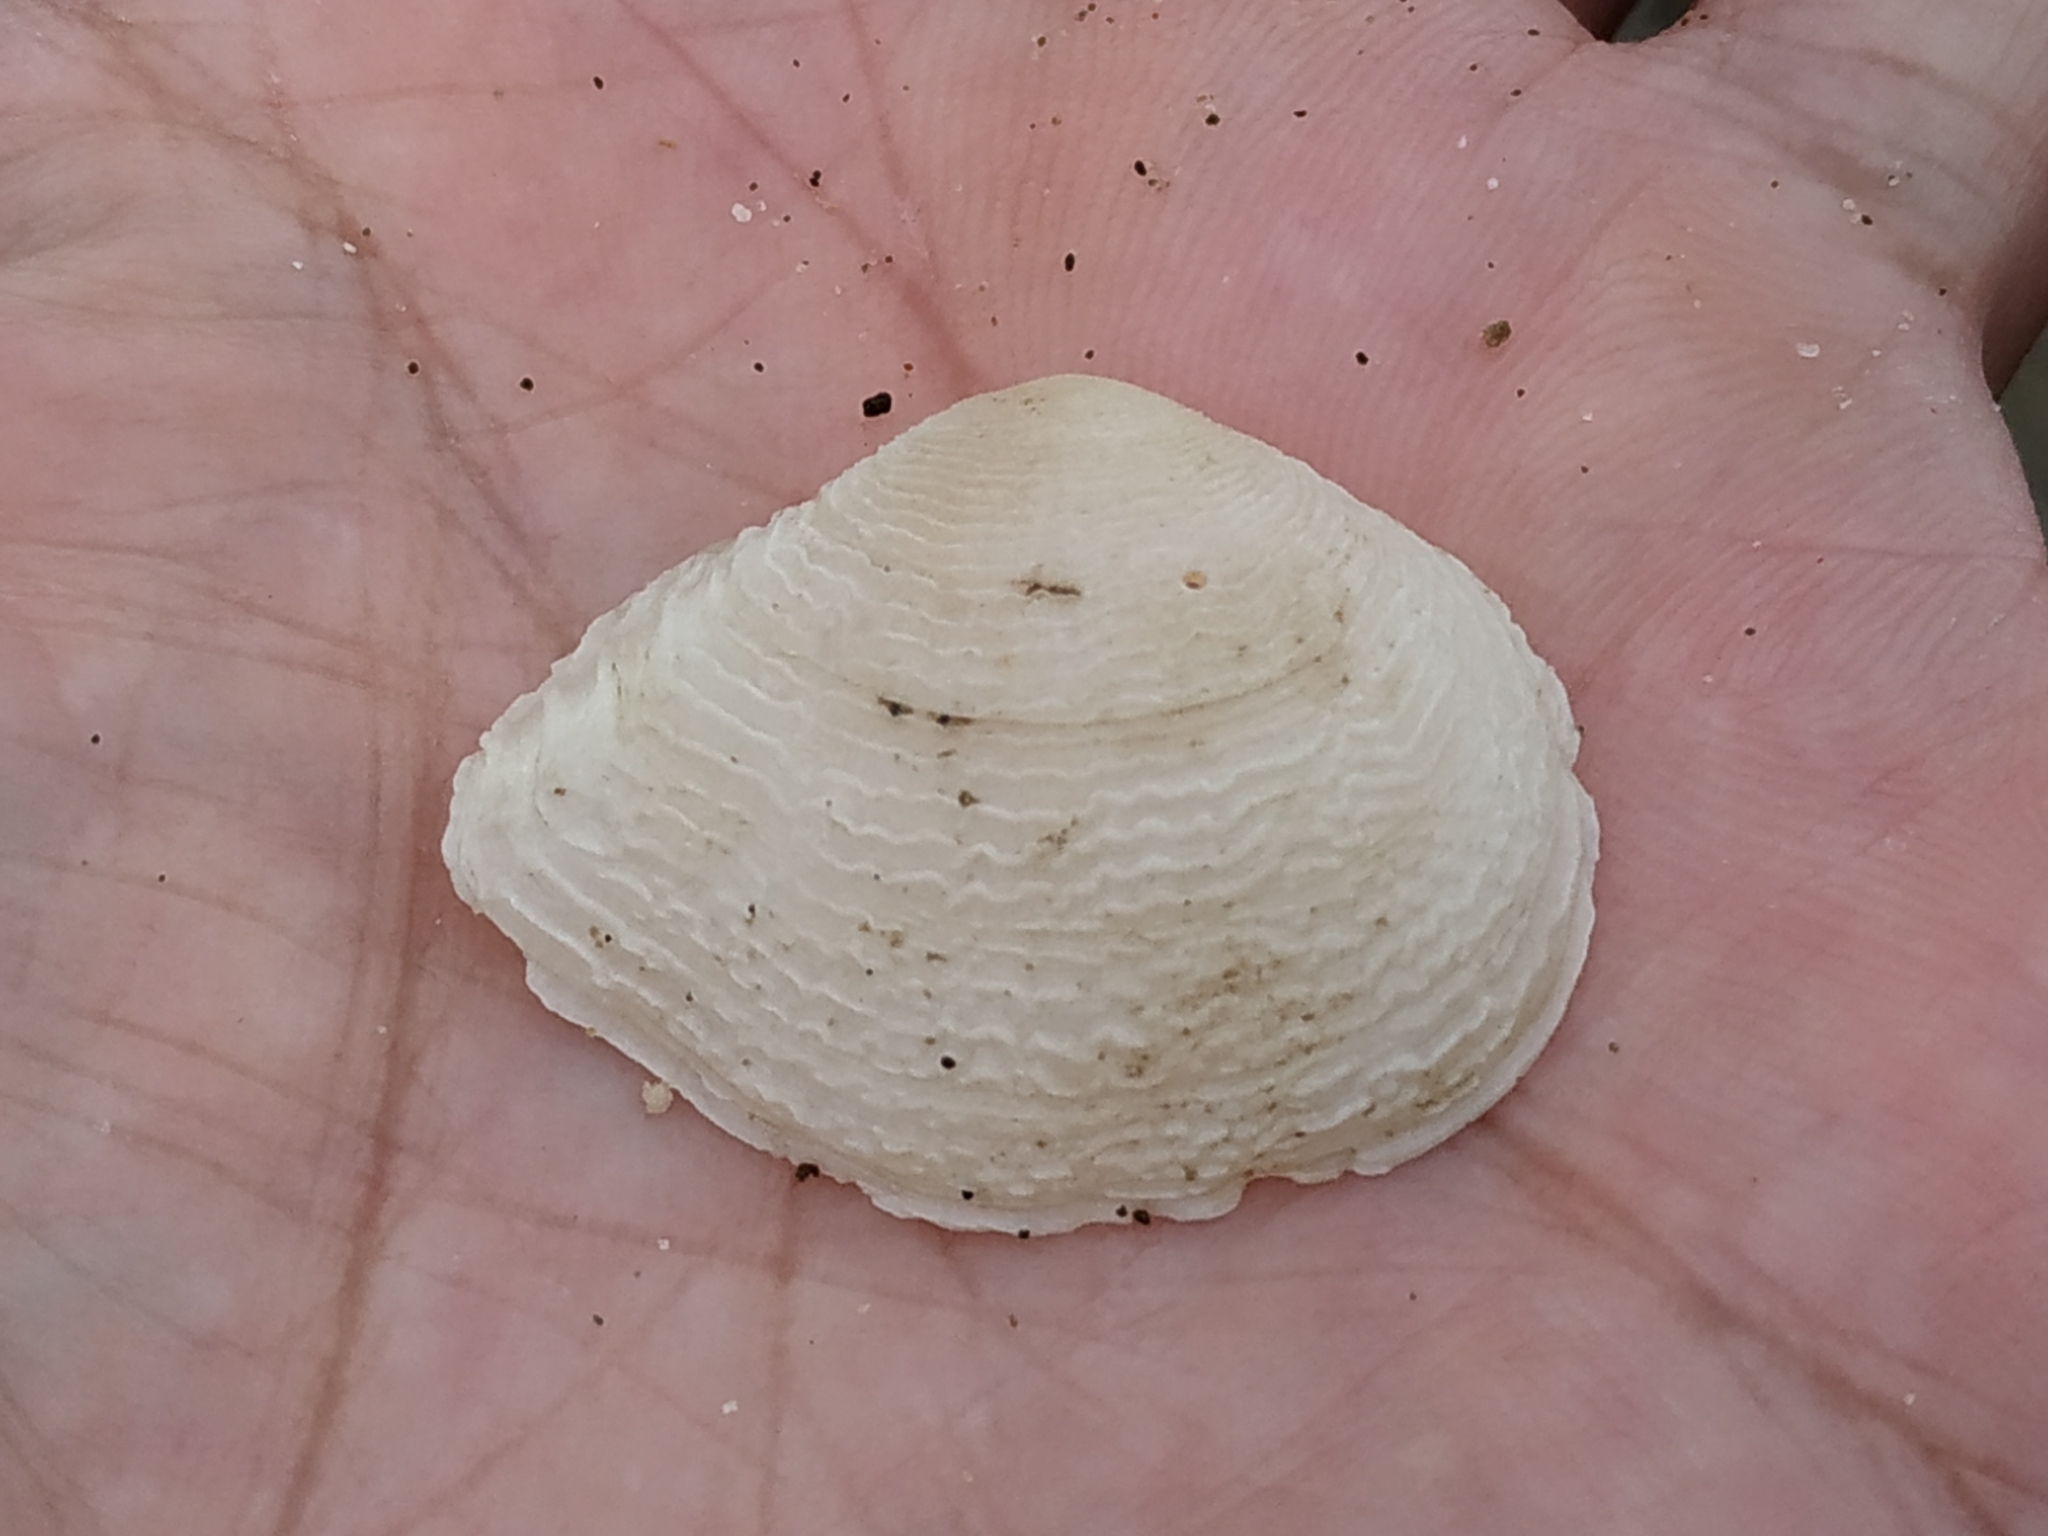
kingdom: Animalia
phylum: Mollusca
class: Bivalvia
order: Cardiida
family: Tellinidae
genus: Quidnipagus
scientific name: Quidnipagus palatam
